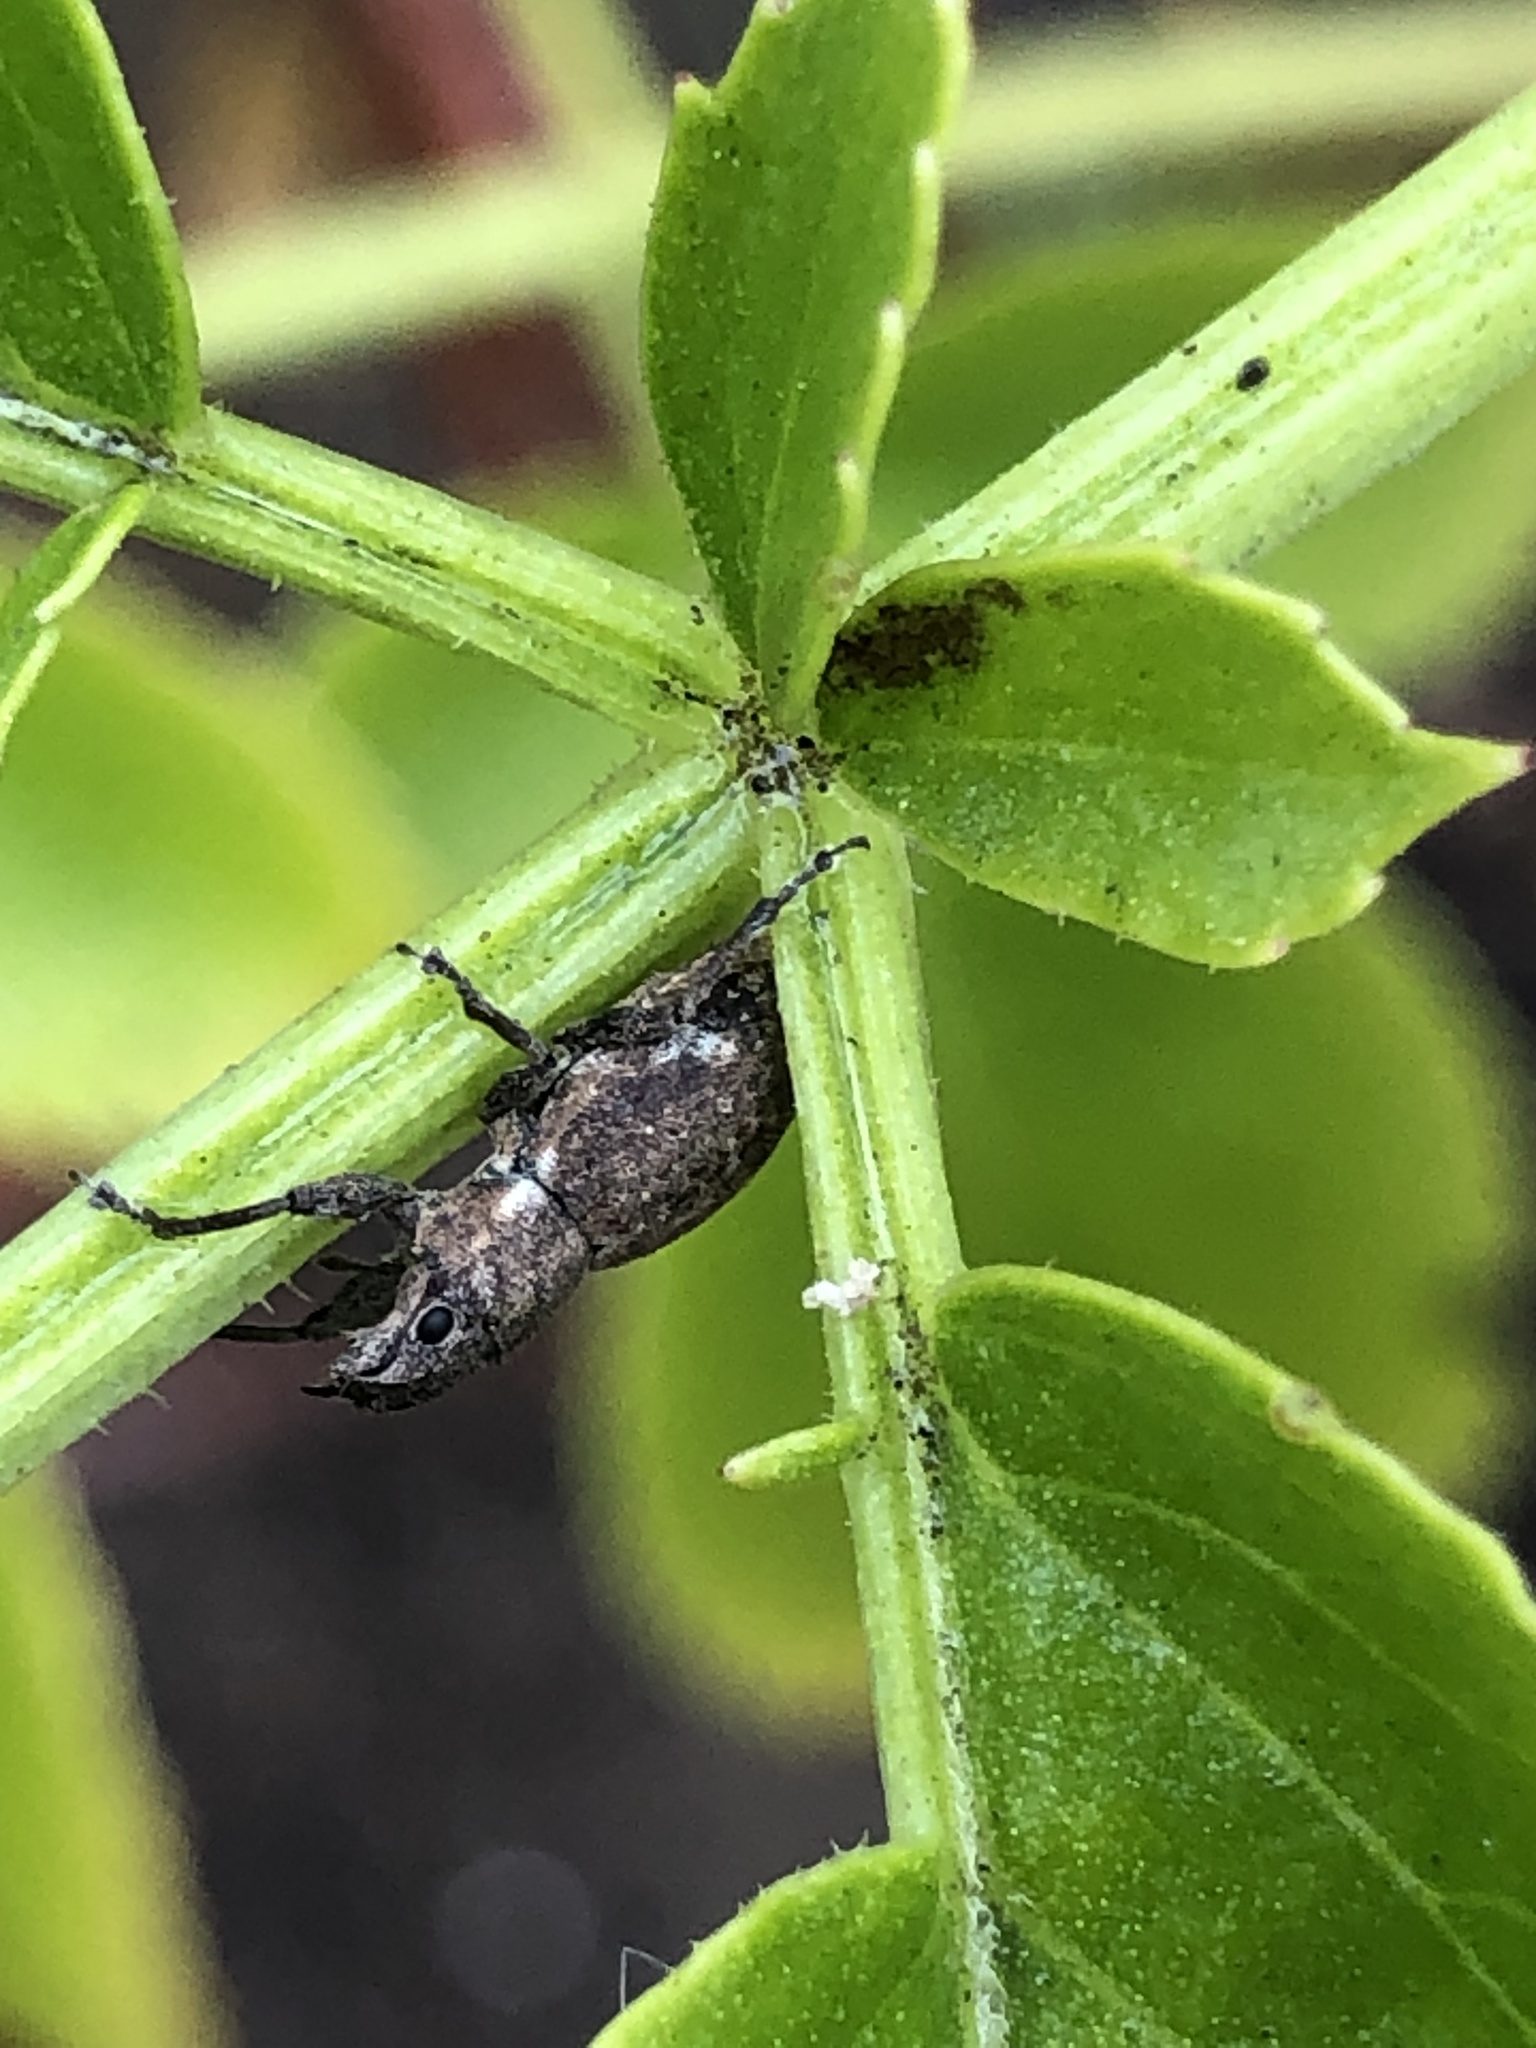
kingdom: Animalia
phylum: Arthropoda
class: Insecta
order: Coleoptera
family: Curculionidae
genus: Naupactus
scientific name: Naupactus cervinus
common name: Fuller rose beetle
